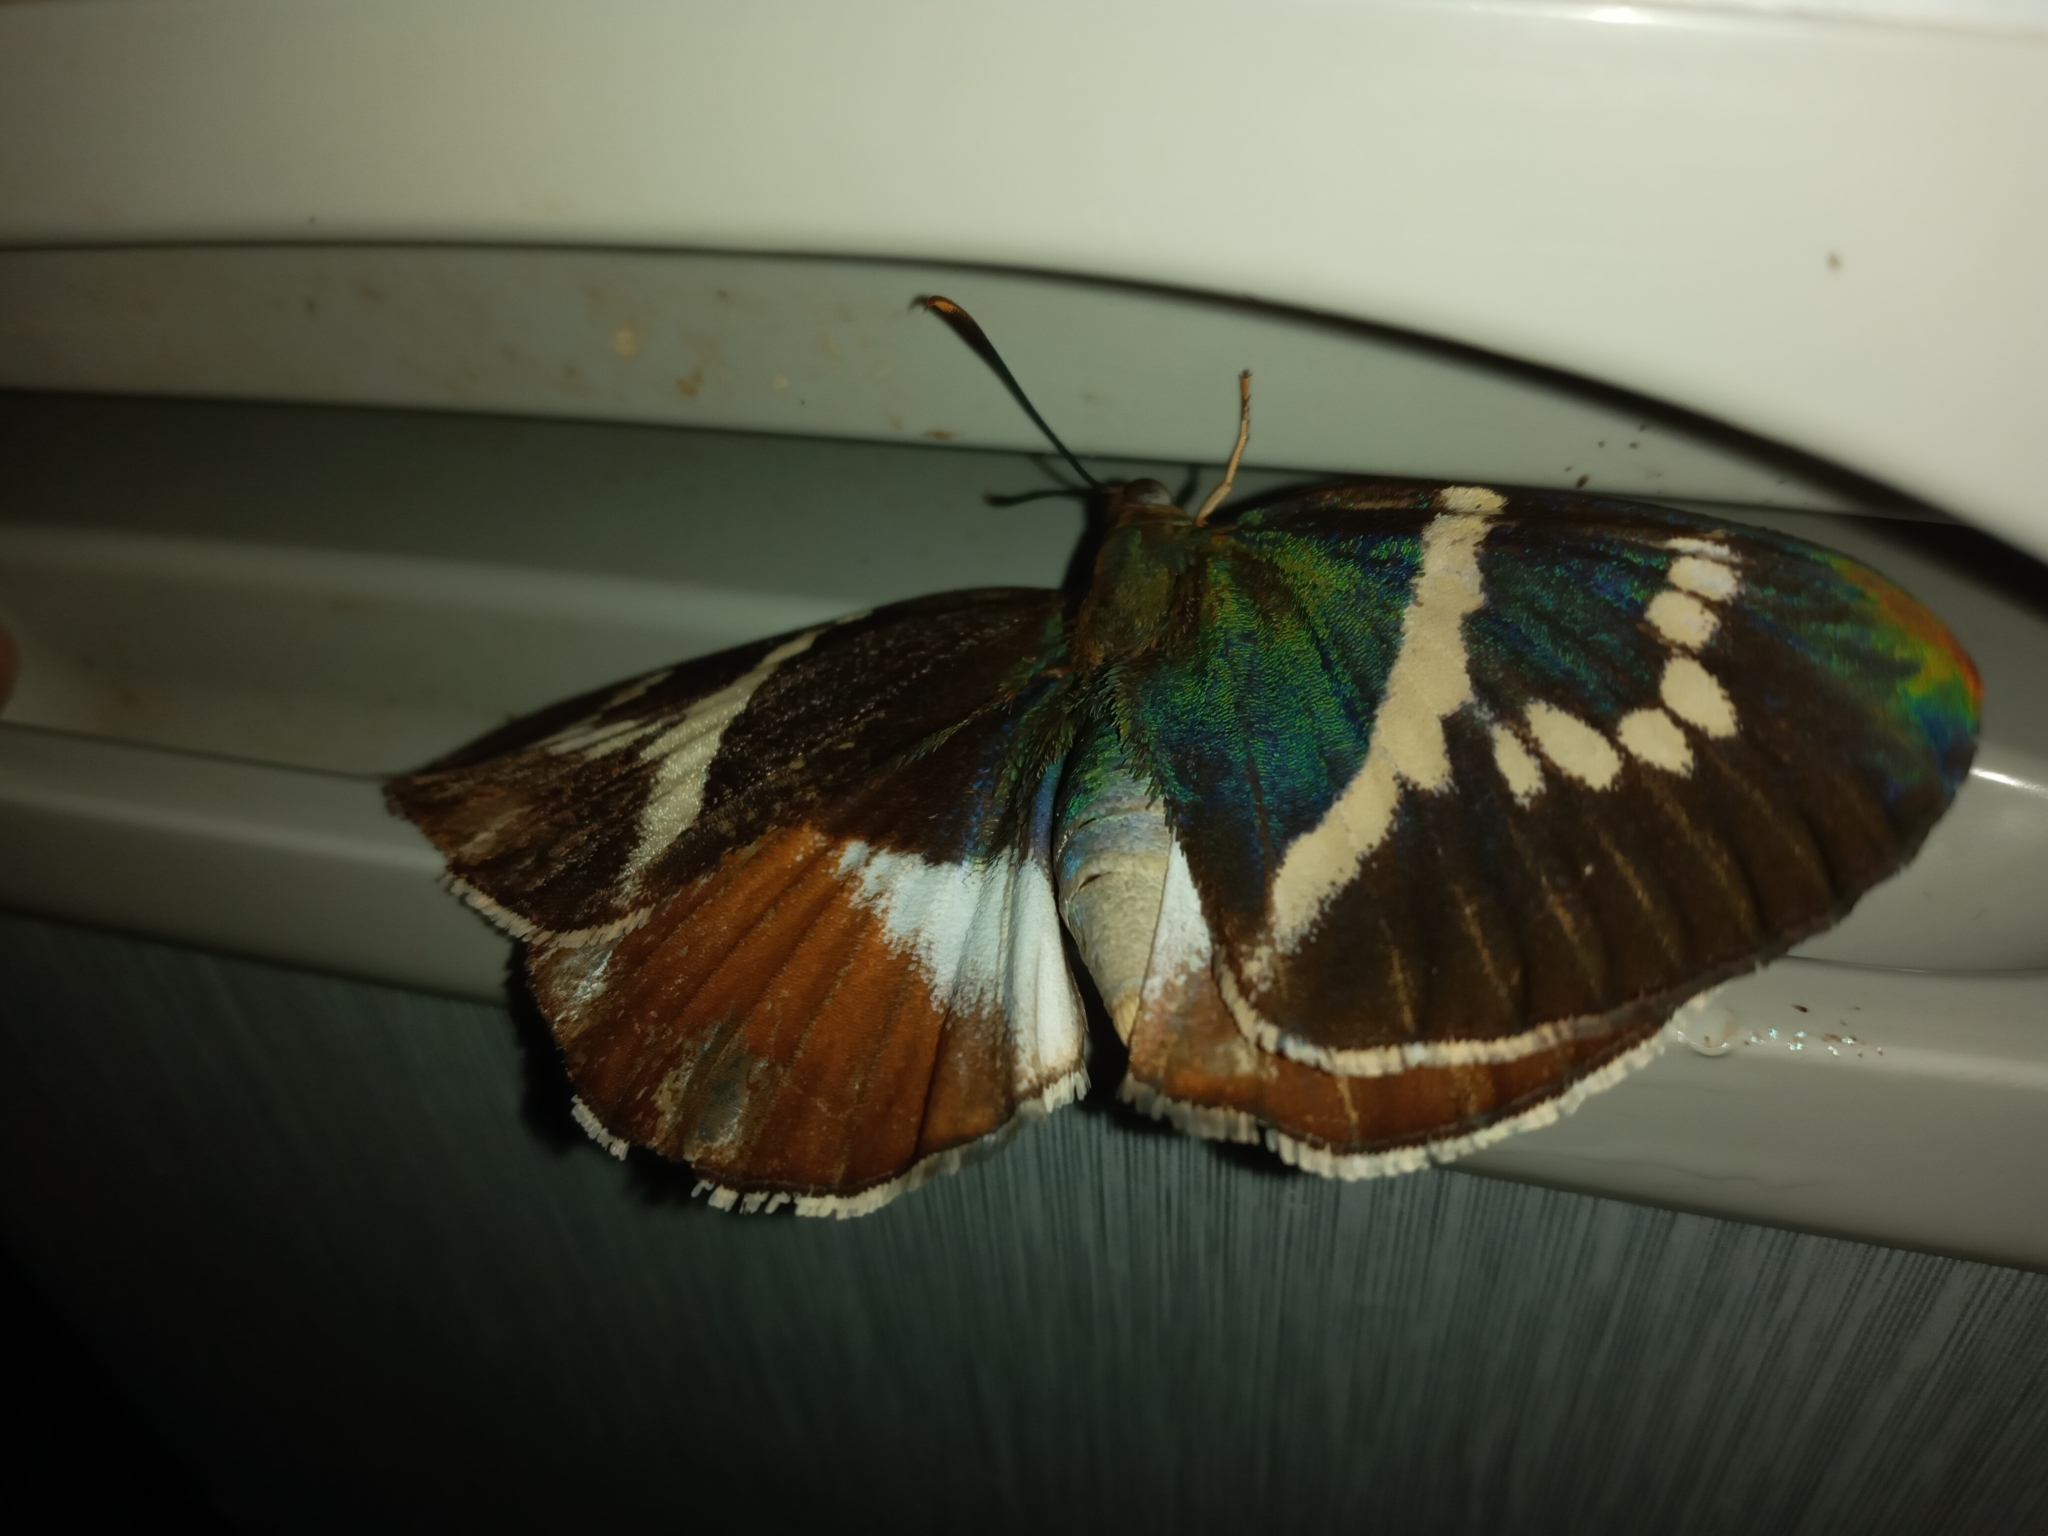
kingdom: Animalia
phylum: Arthropoda
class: Insecta
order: Lepidoptera
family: Castniidae
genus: Castniomera
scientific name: Castniomera atymnius
